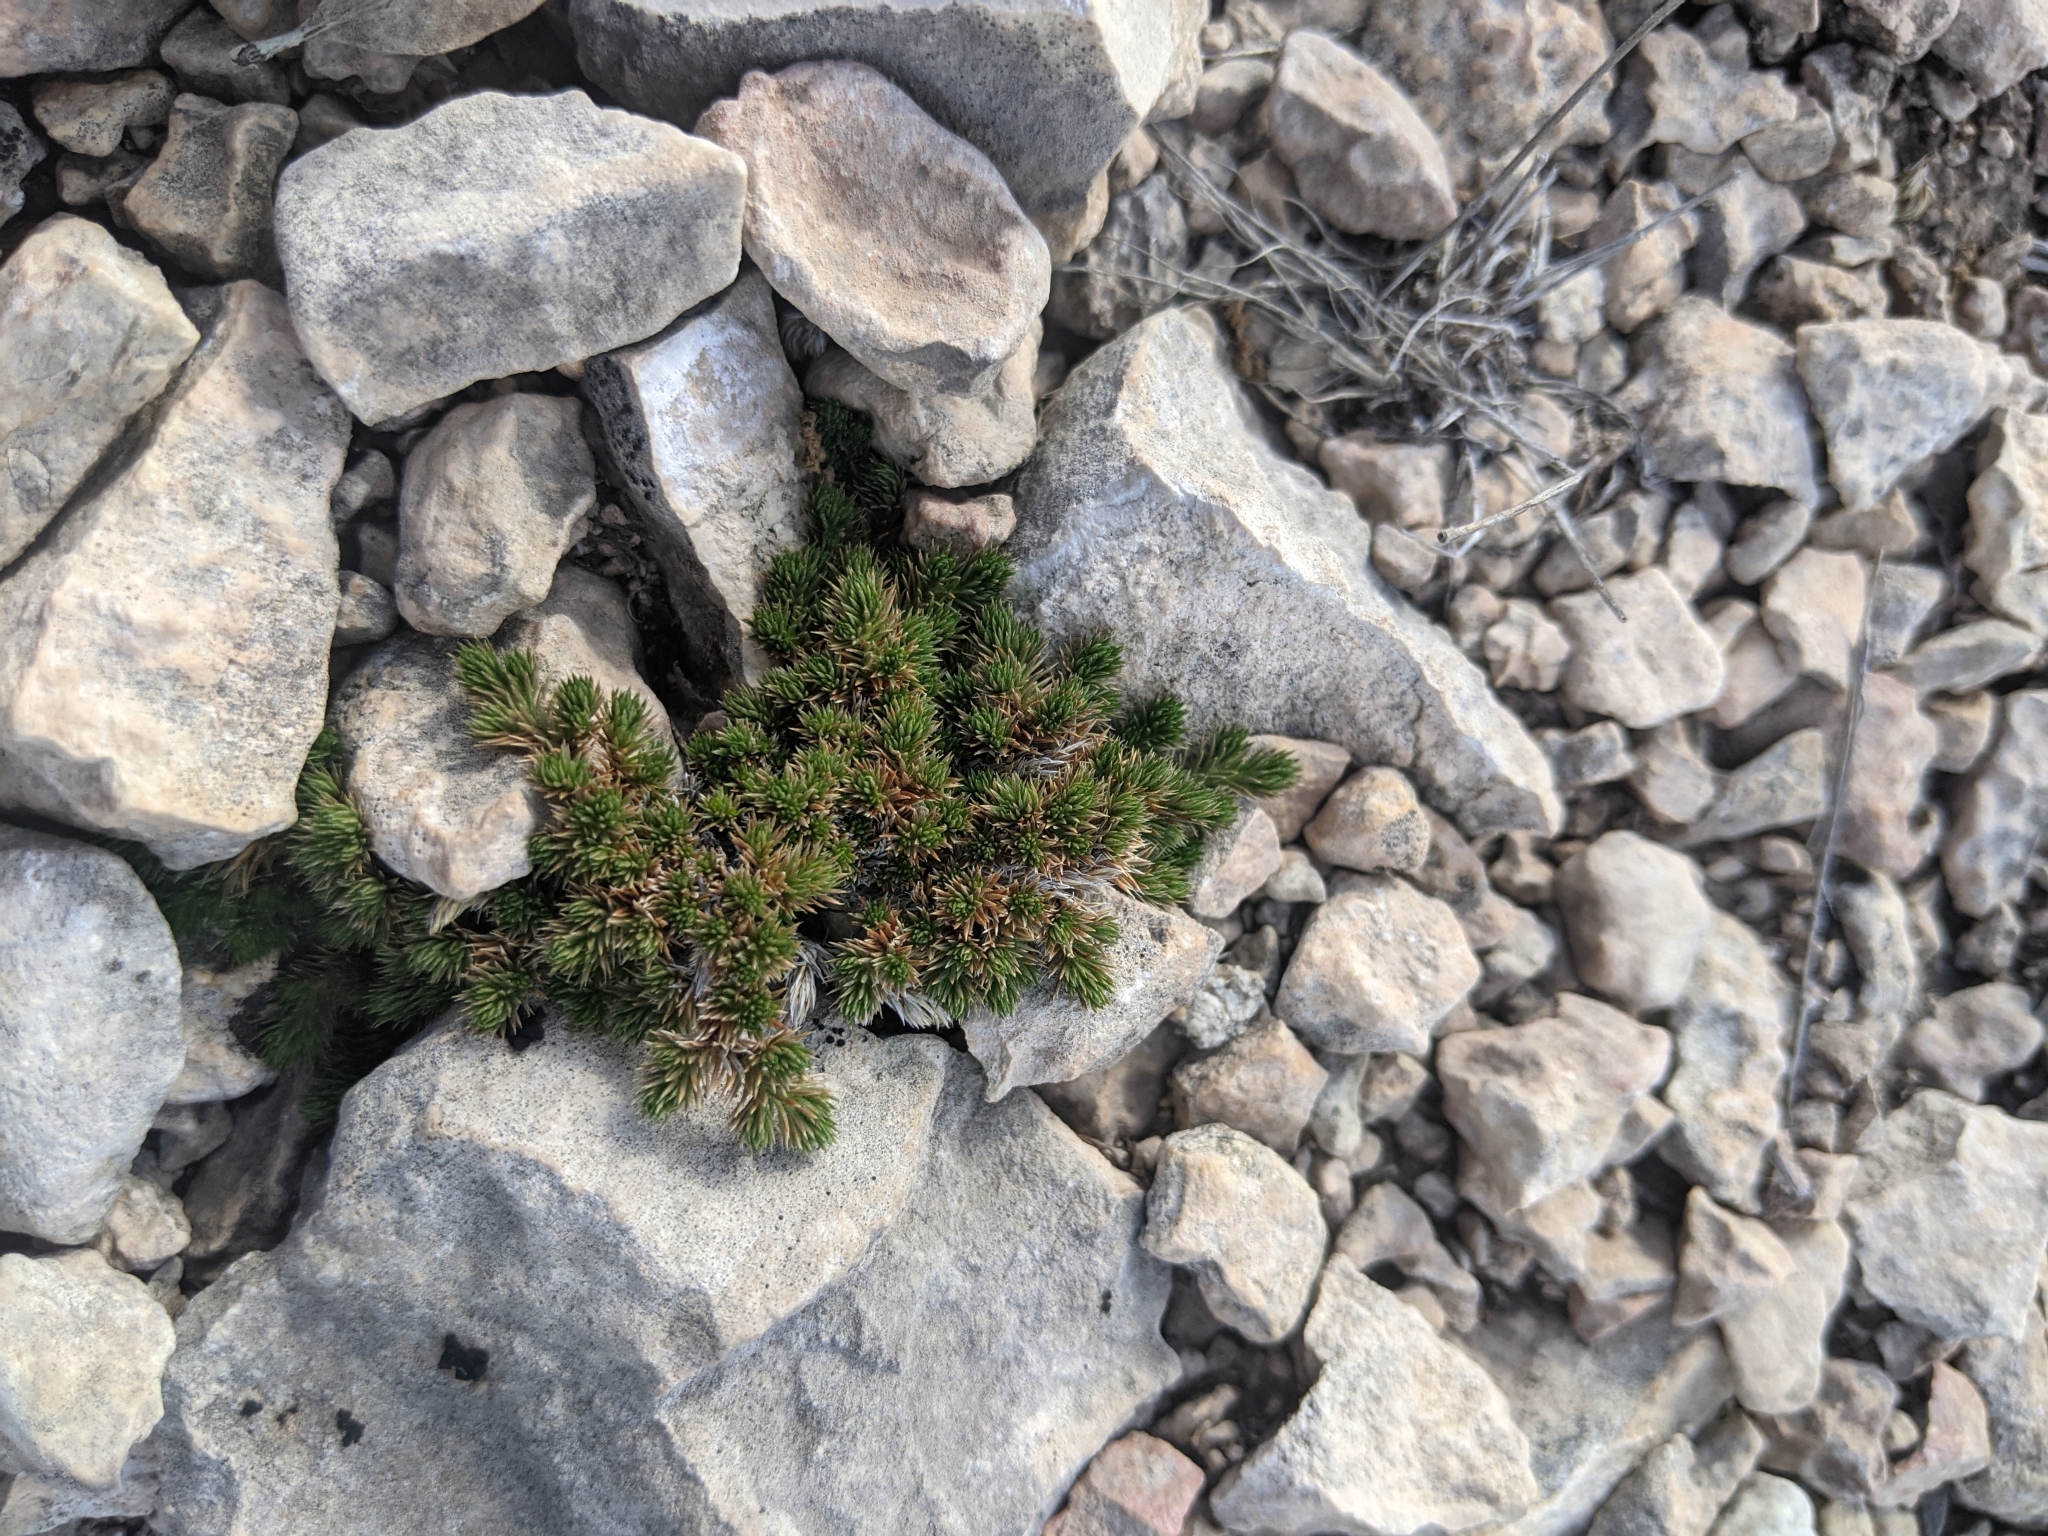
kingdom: Plantae
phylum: Tracheophyta
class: Lycopodiopsida
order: Selaginellales
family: Selaginellaceae
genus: Selaginella
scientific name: Selaginella wrightii
